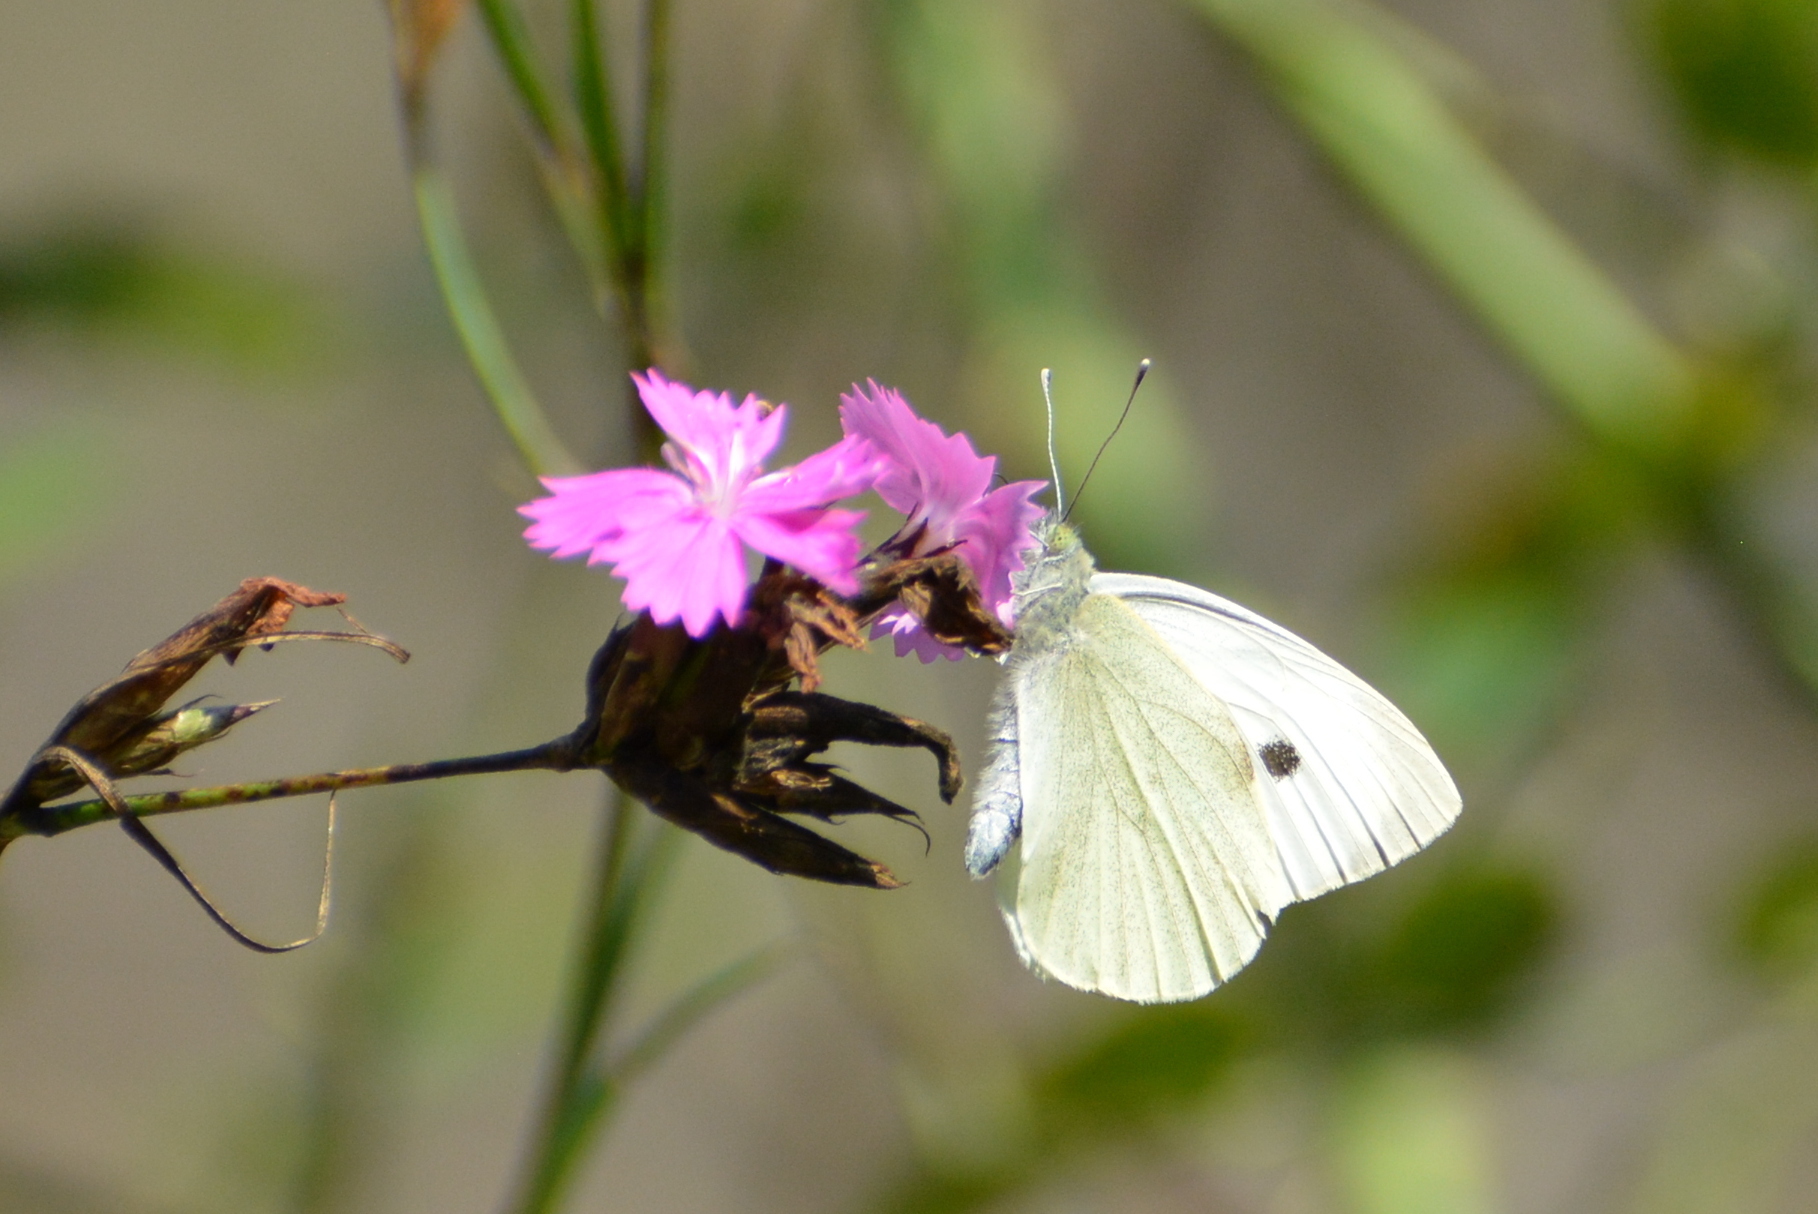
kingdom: Animalia
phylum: Arthropoda
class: Insecta
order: Lepidoptera
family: Pieridae
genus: Pieris
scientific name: Pieris brassicae
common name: Large white
